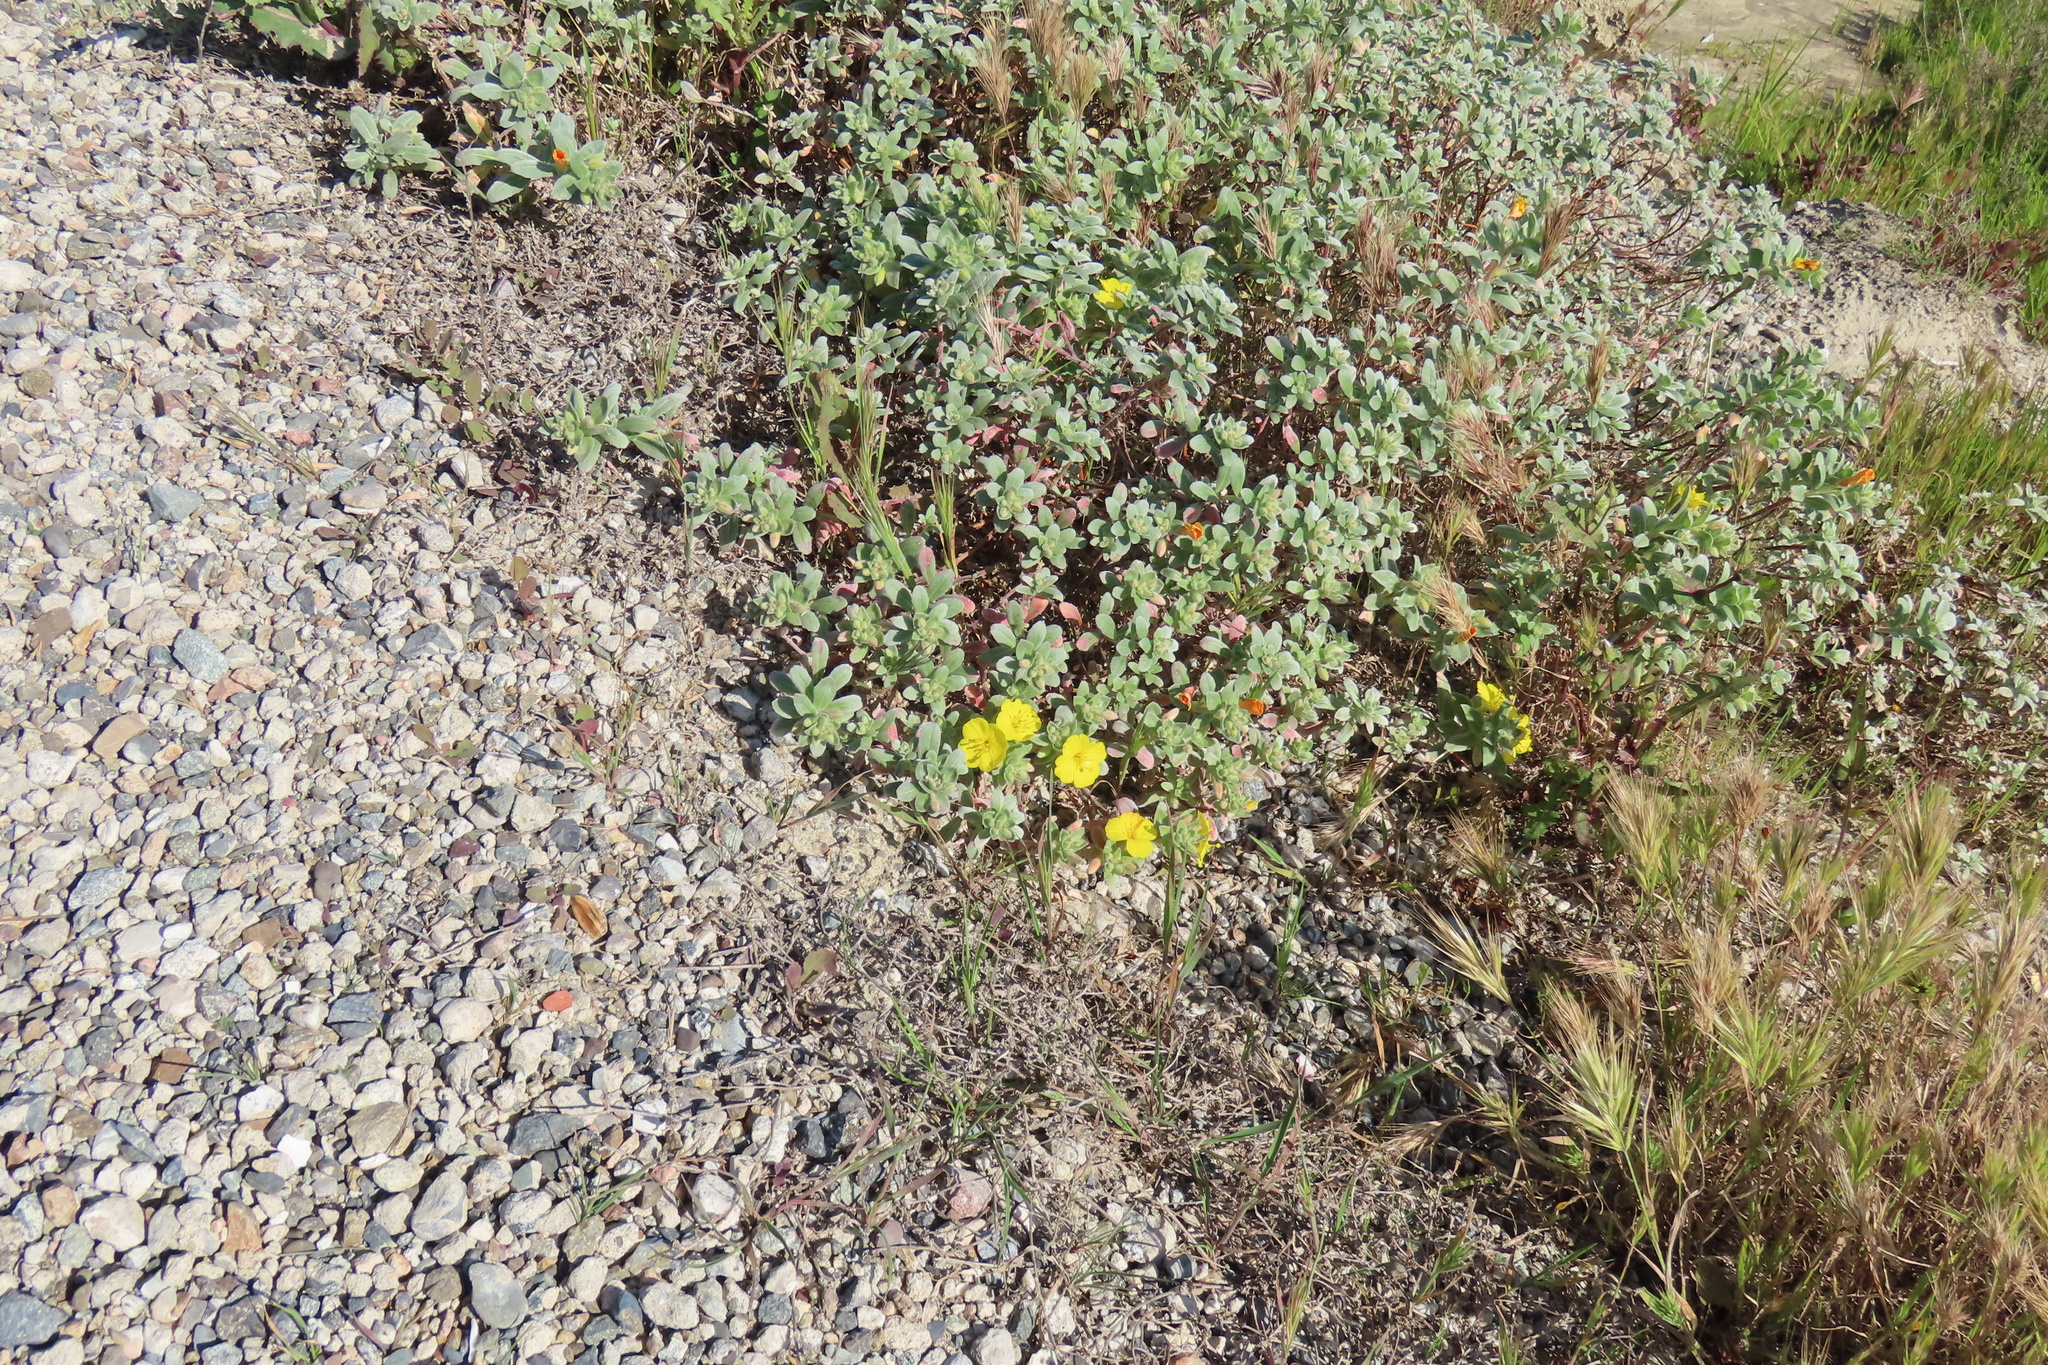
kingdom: Plantae
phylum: Tracheophyta
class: Magnoliopsida
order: Myrtales
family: Onagraceae
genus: Camissoniopsis
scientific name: Camissoniopsis cheiranthifolia
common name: Beach suncup
